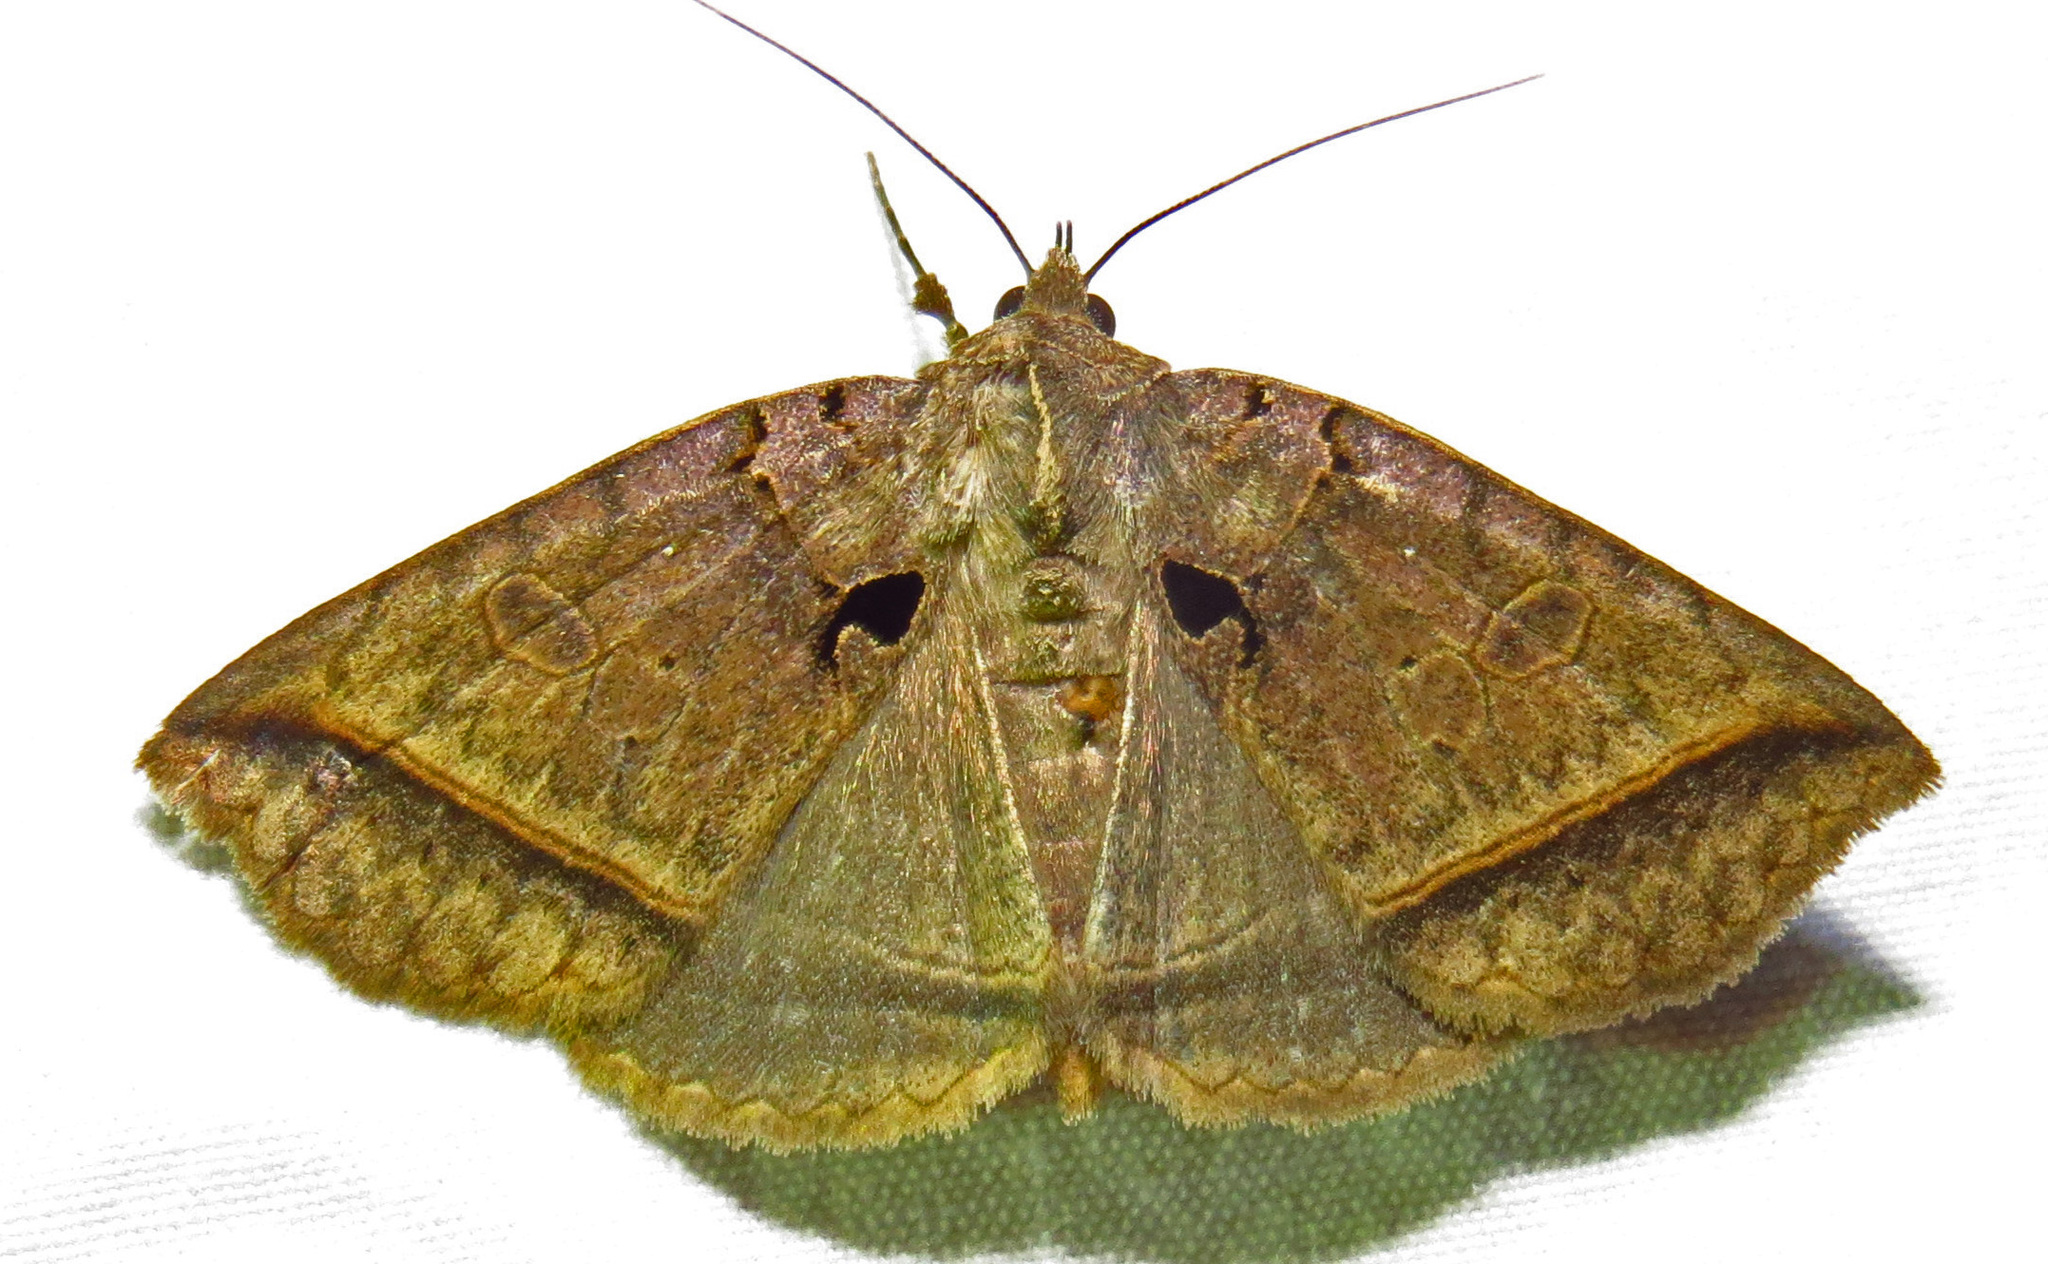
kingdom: Animalia
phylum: Arthropoda
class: Insecta
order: Lepidoptera
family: Erebidae
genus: Celiptera
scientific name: Celiptera frustulum
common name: Black bit moth
